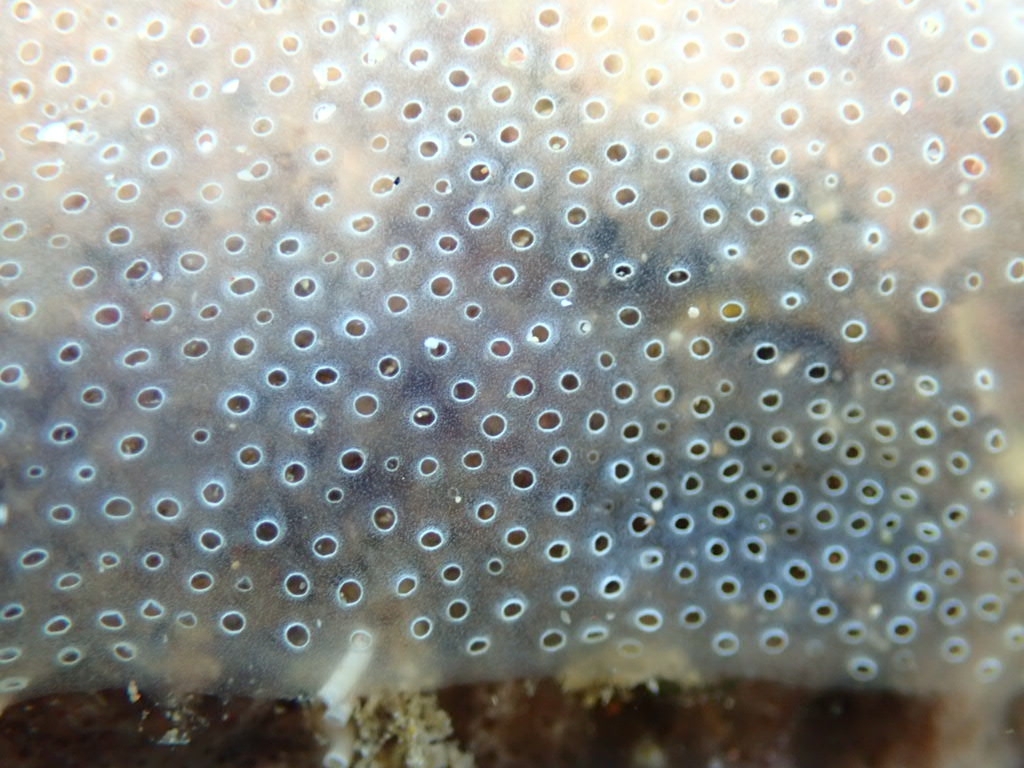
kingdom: Animalia
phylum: Chordata
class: Ascidiacea
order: Aplousobranchia
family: Didemnidae
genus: Diplosoma
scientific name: Diplosoma spongiforme
